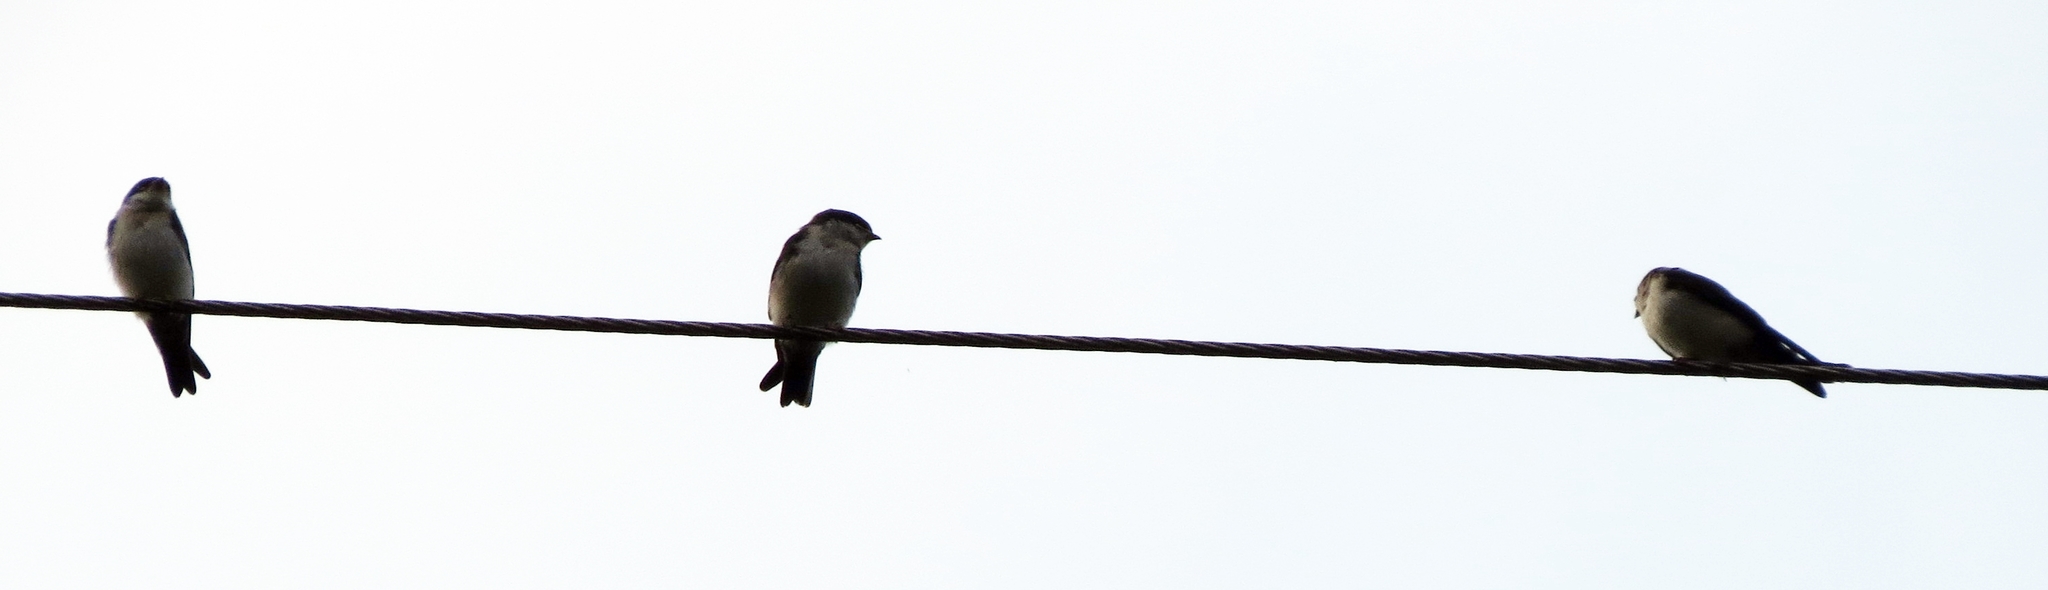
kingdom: Animalia
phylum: Chordata
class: Aves
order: Passeriformes
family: Hirundinidae
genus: Notiochelidon
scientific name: Notiochelidon cyanoleuca
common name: Blue-and-white swallow
